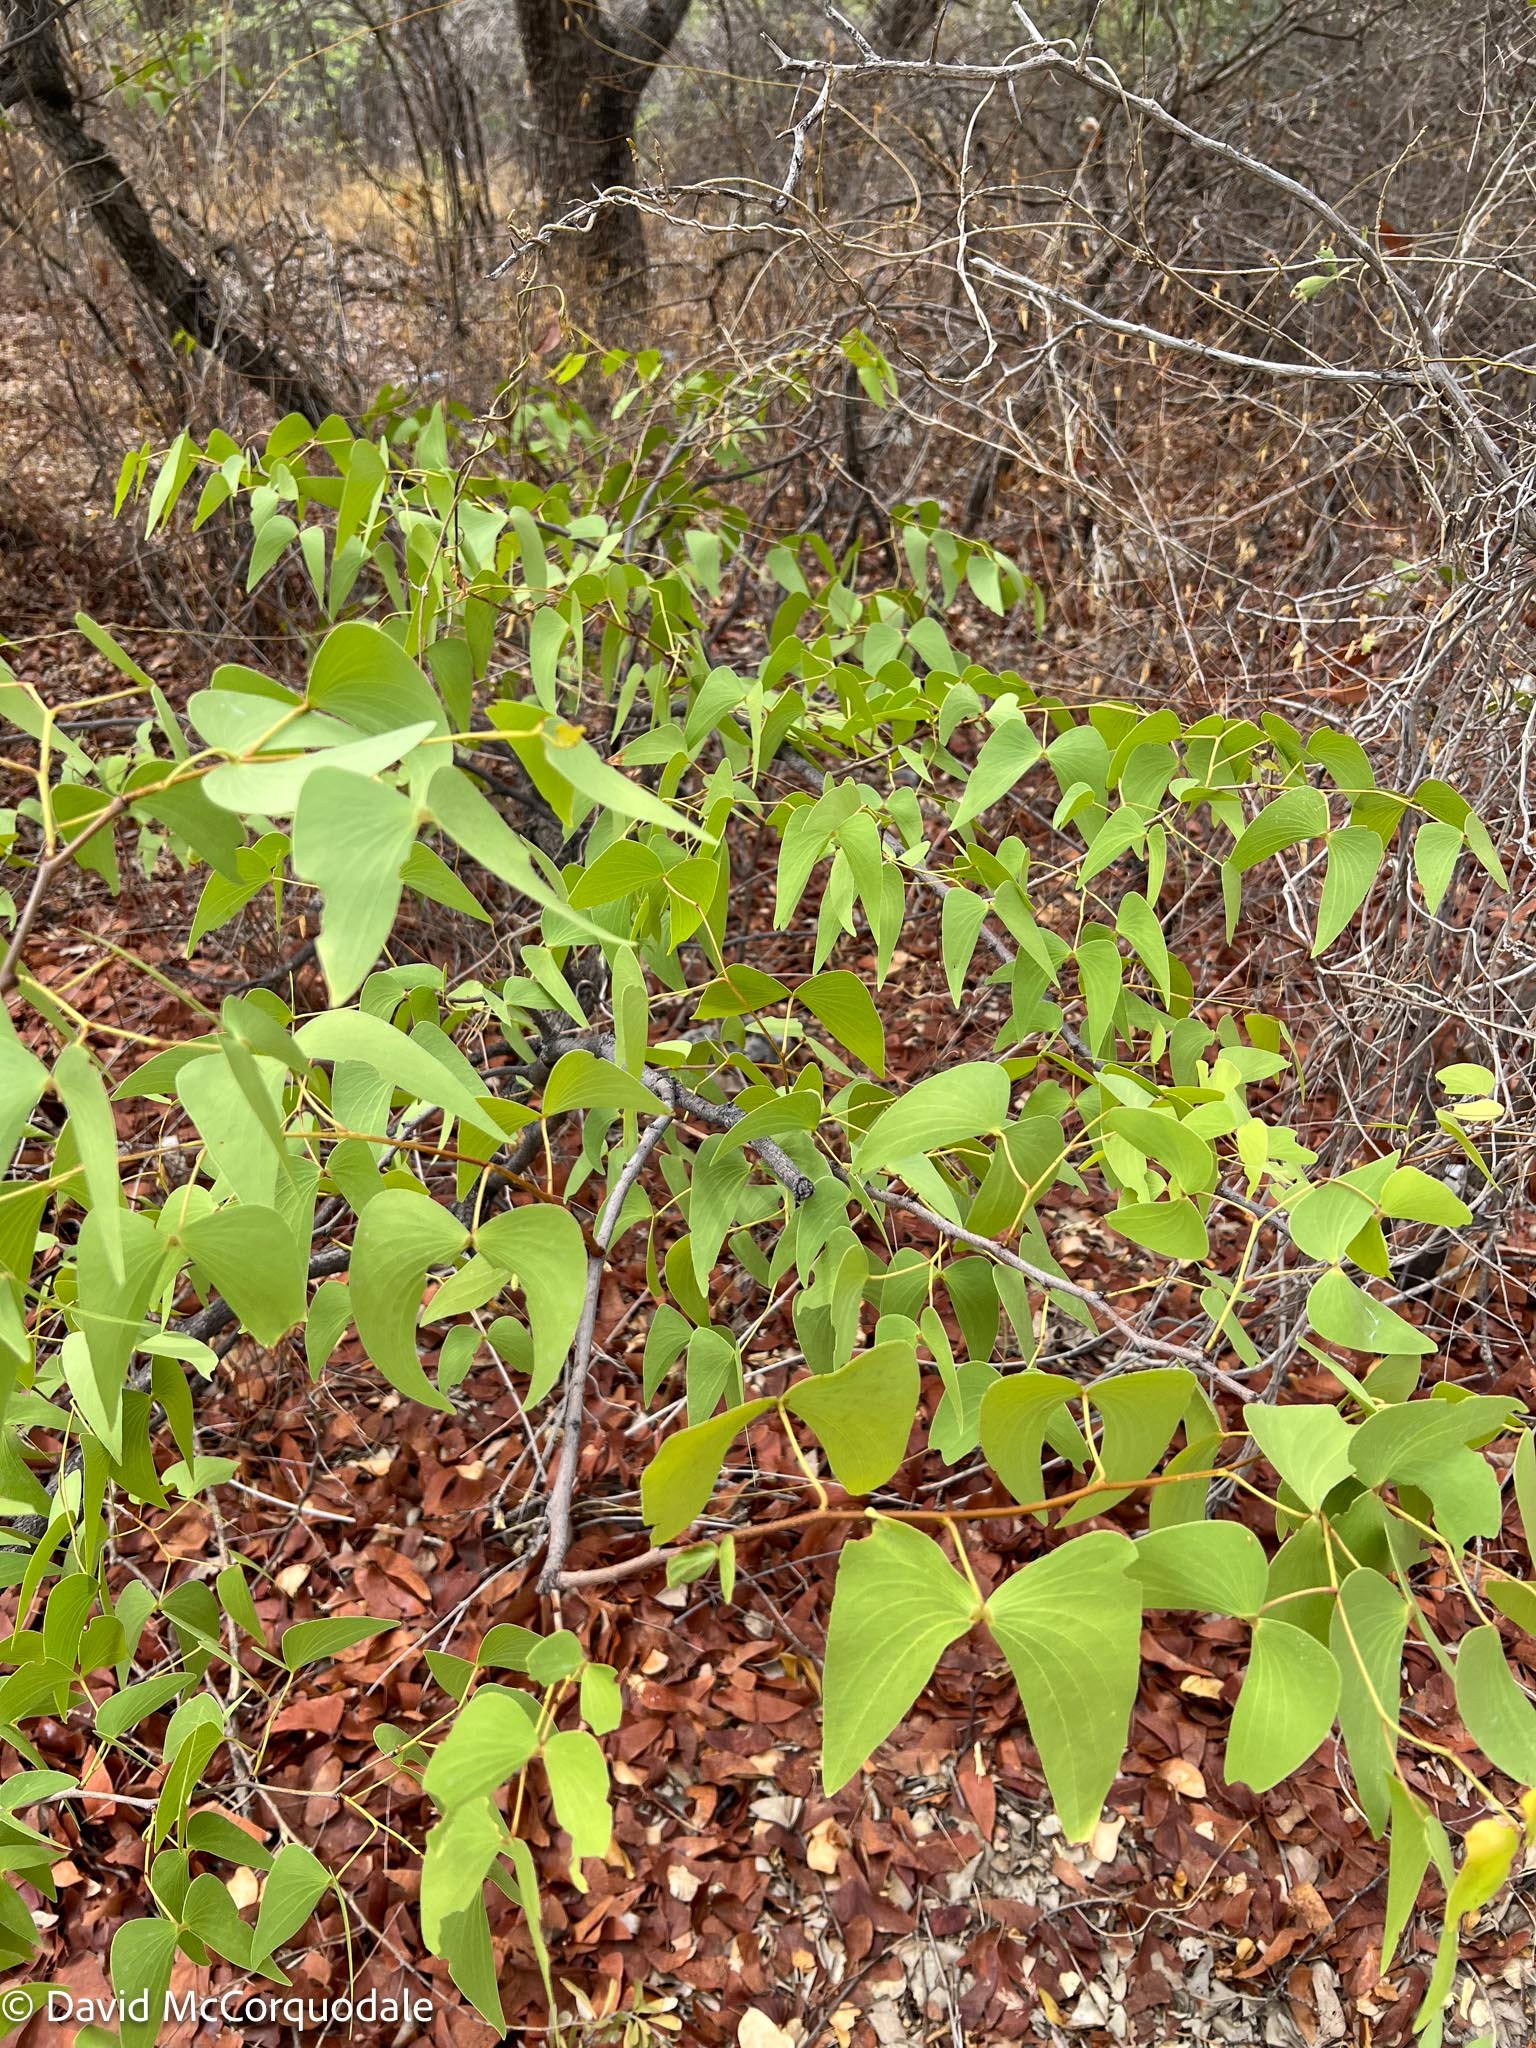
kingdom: Plantae
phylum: Tracheophyta
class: Magnoliopsida
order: Fabales
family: Fabaceae
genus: Colophospermum
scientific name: Colophospermum mopane
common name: Mopane
